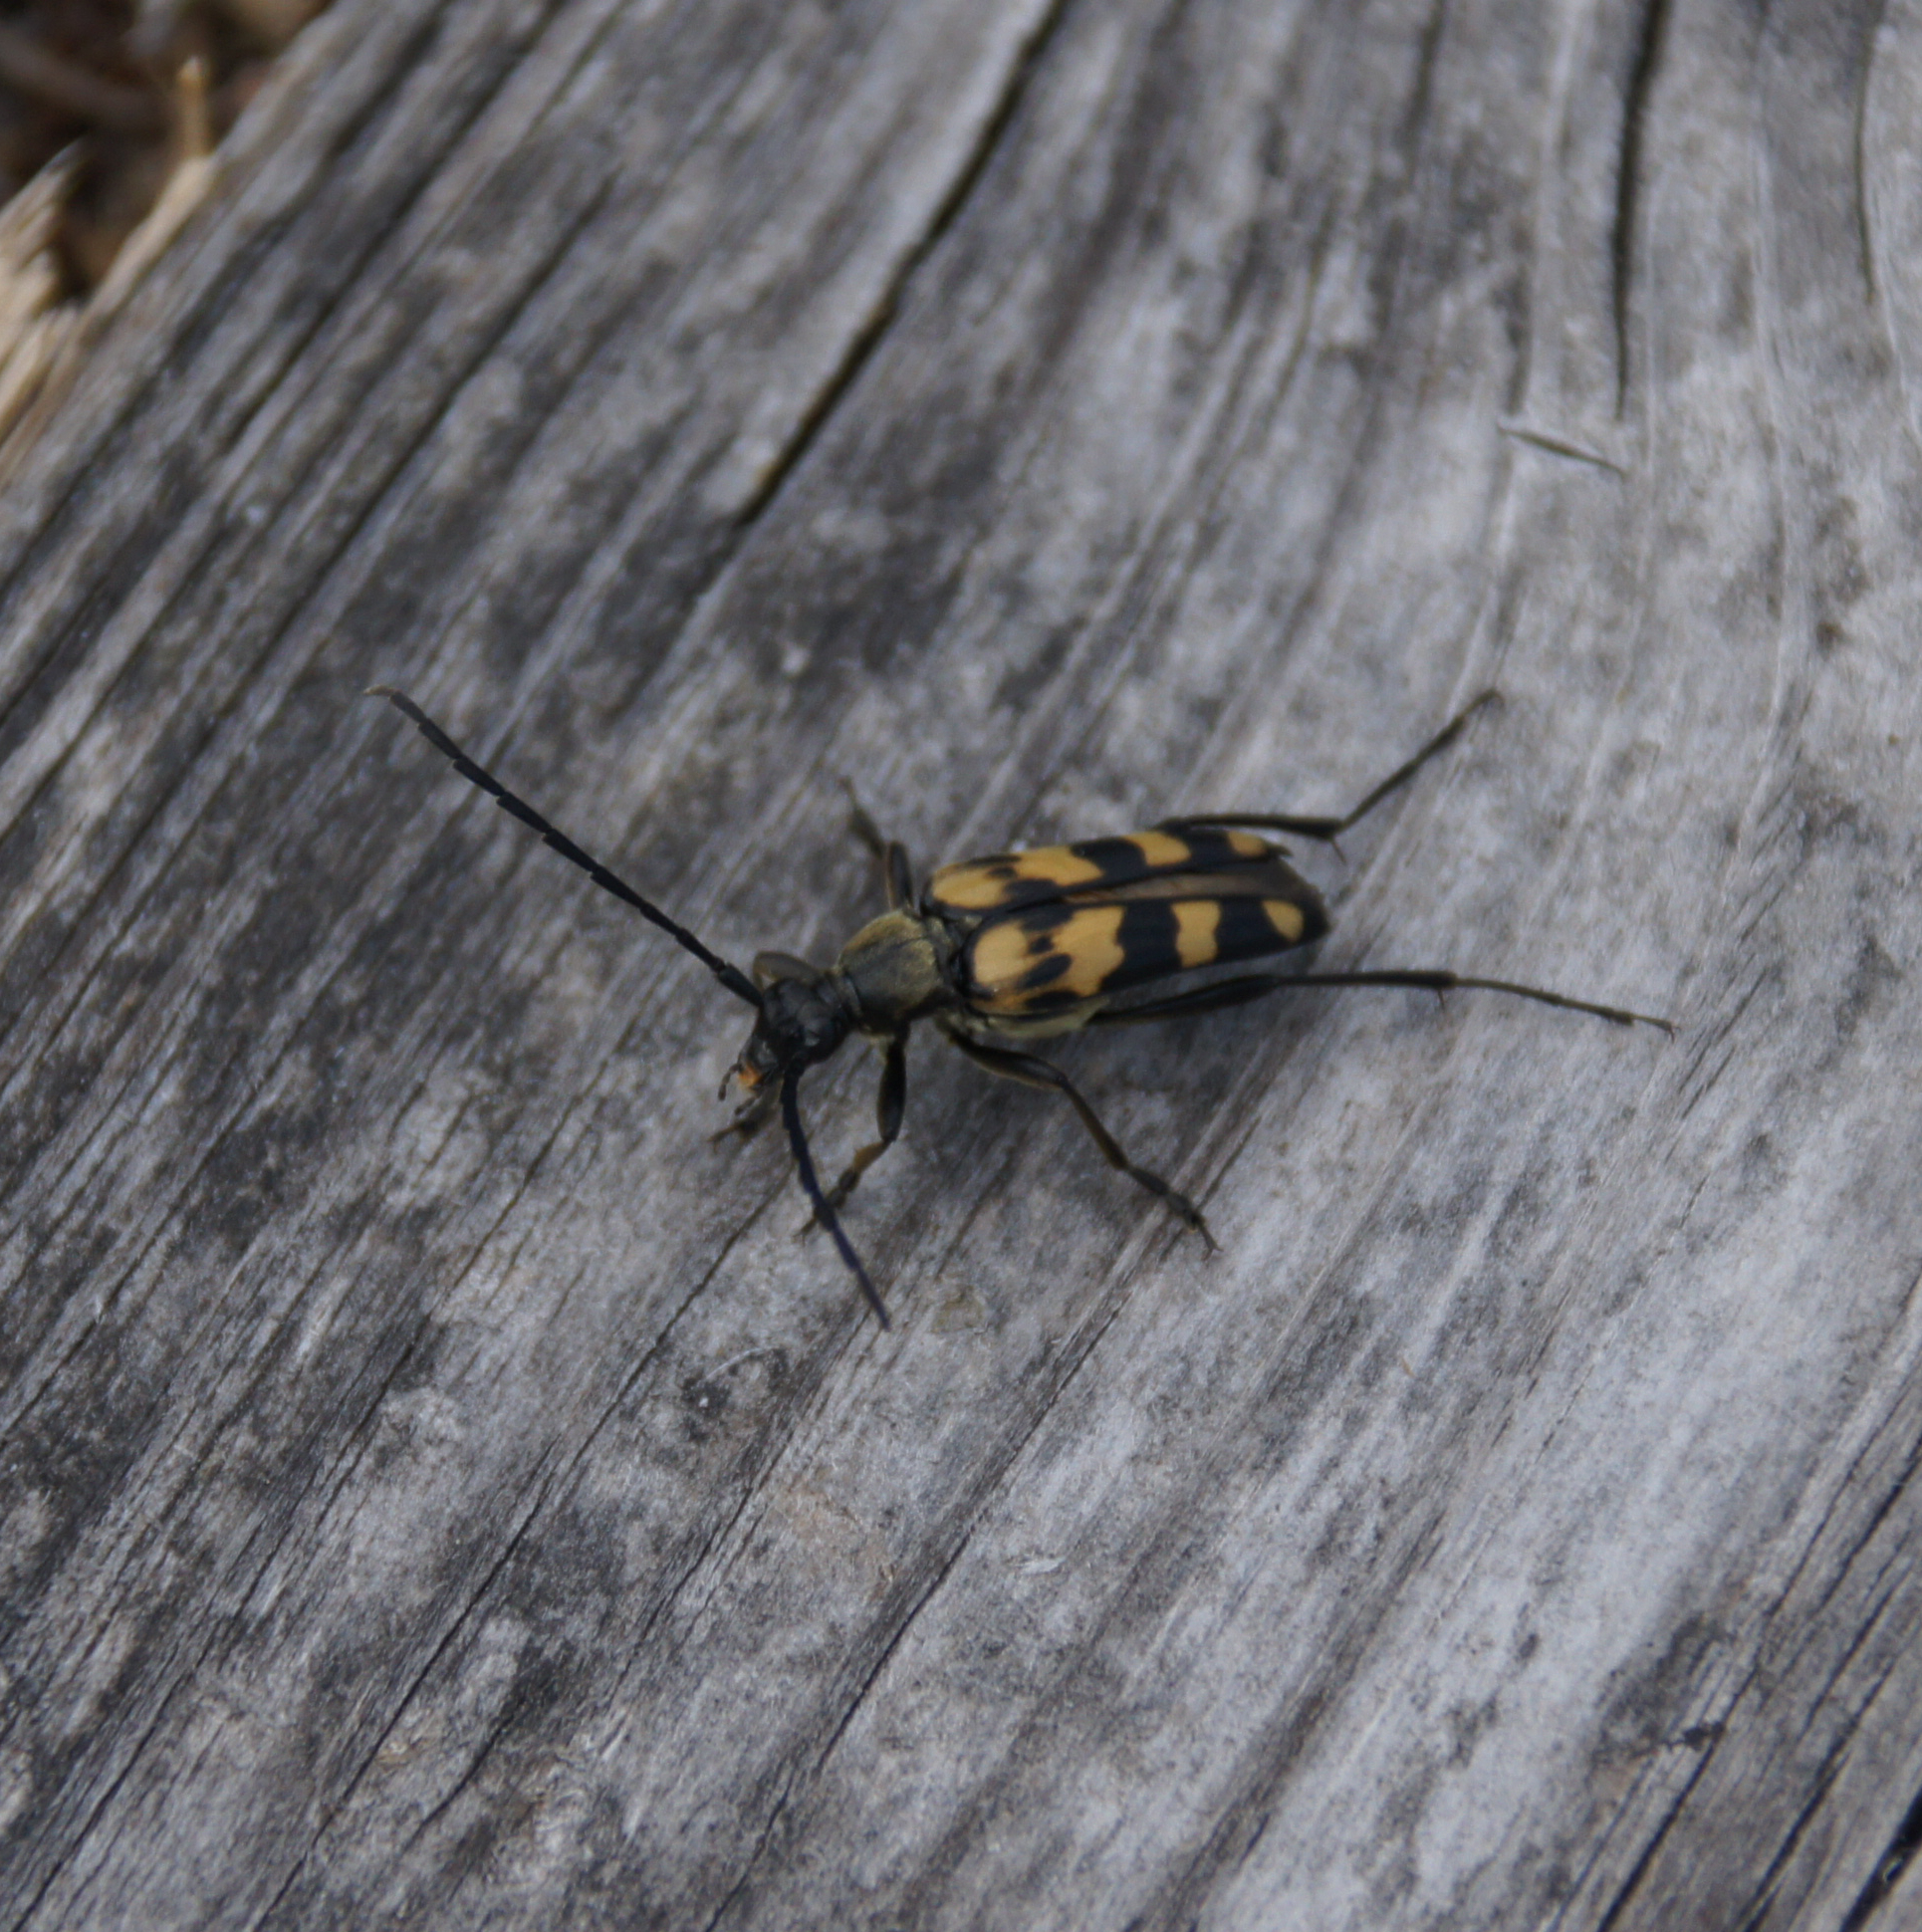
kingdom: Animalia
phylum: Arthropoda
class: Insecta
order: Coleoptera
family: Cerambycidae
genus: Leptura
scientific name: Leptura quadrifasciata
